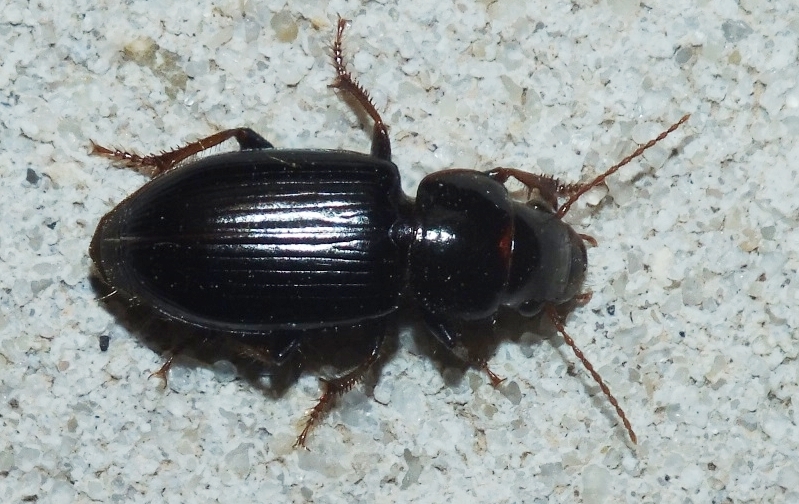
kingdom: Animalia
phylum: Arthropoda
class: Insecta
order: Coleoptera
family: Carabidae
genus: Microderes
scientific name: Microderes brachypus
